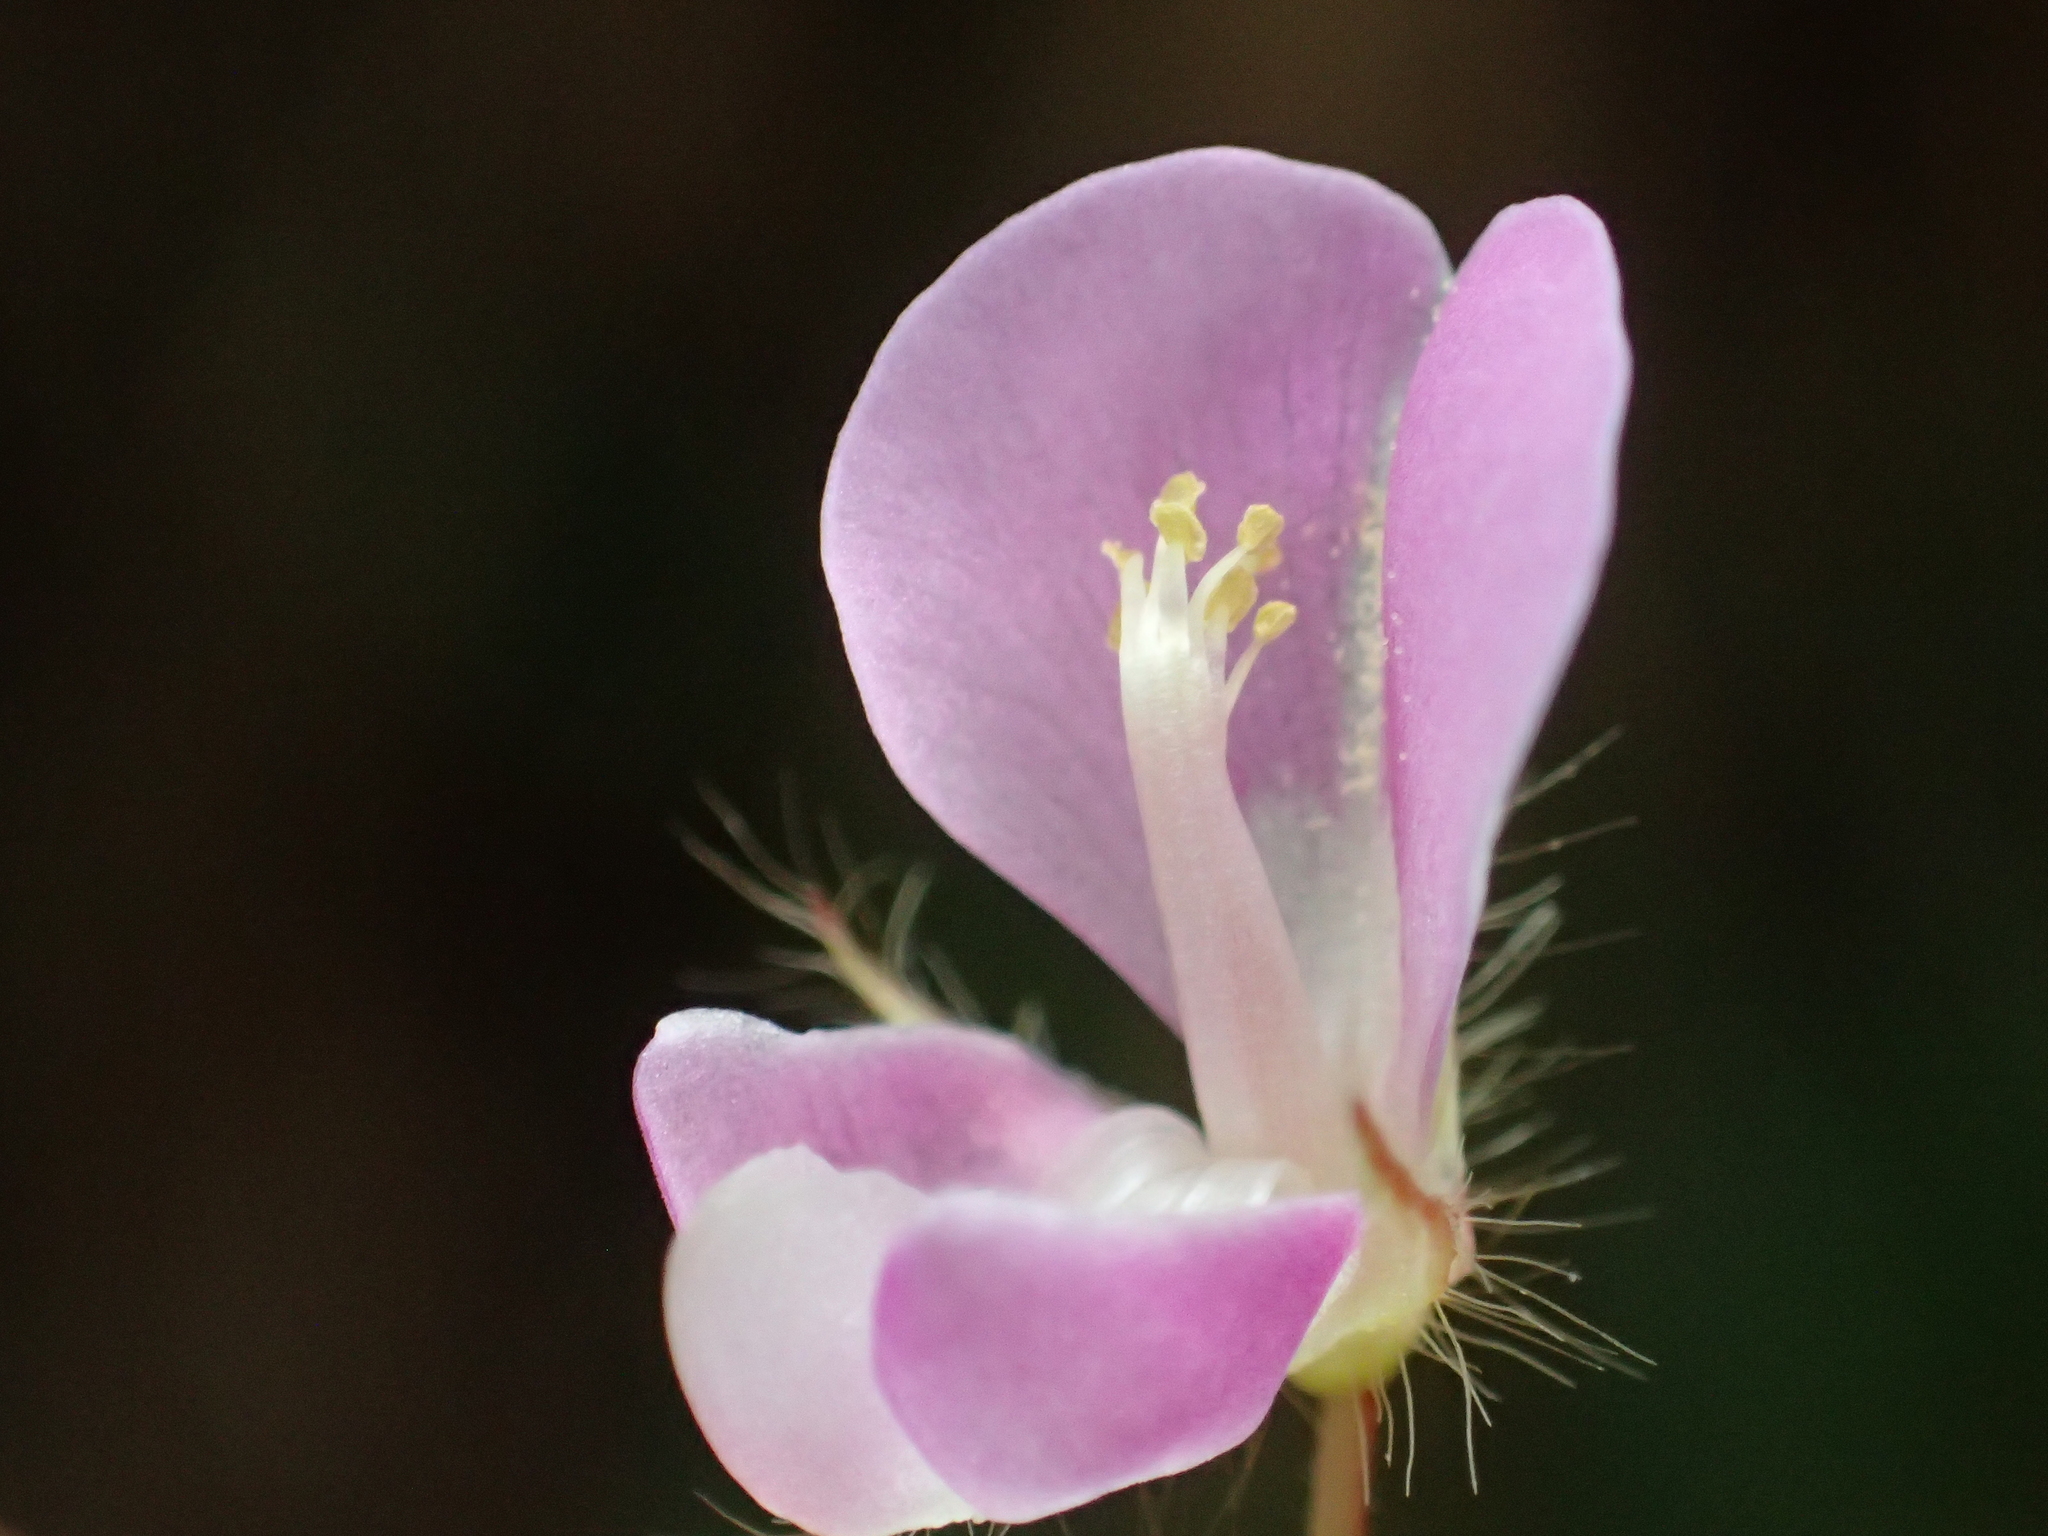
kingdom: Plantae
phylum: Tracheophyta
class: Magnoliopsida
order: Fabales
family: Fabaceae
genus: Grona
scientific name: Grona heterophylla
